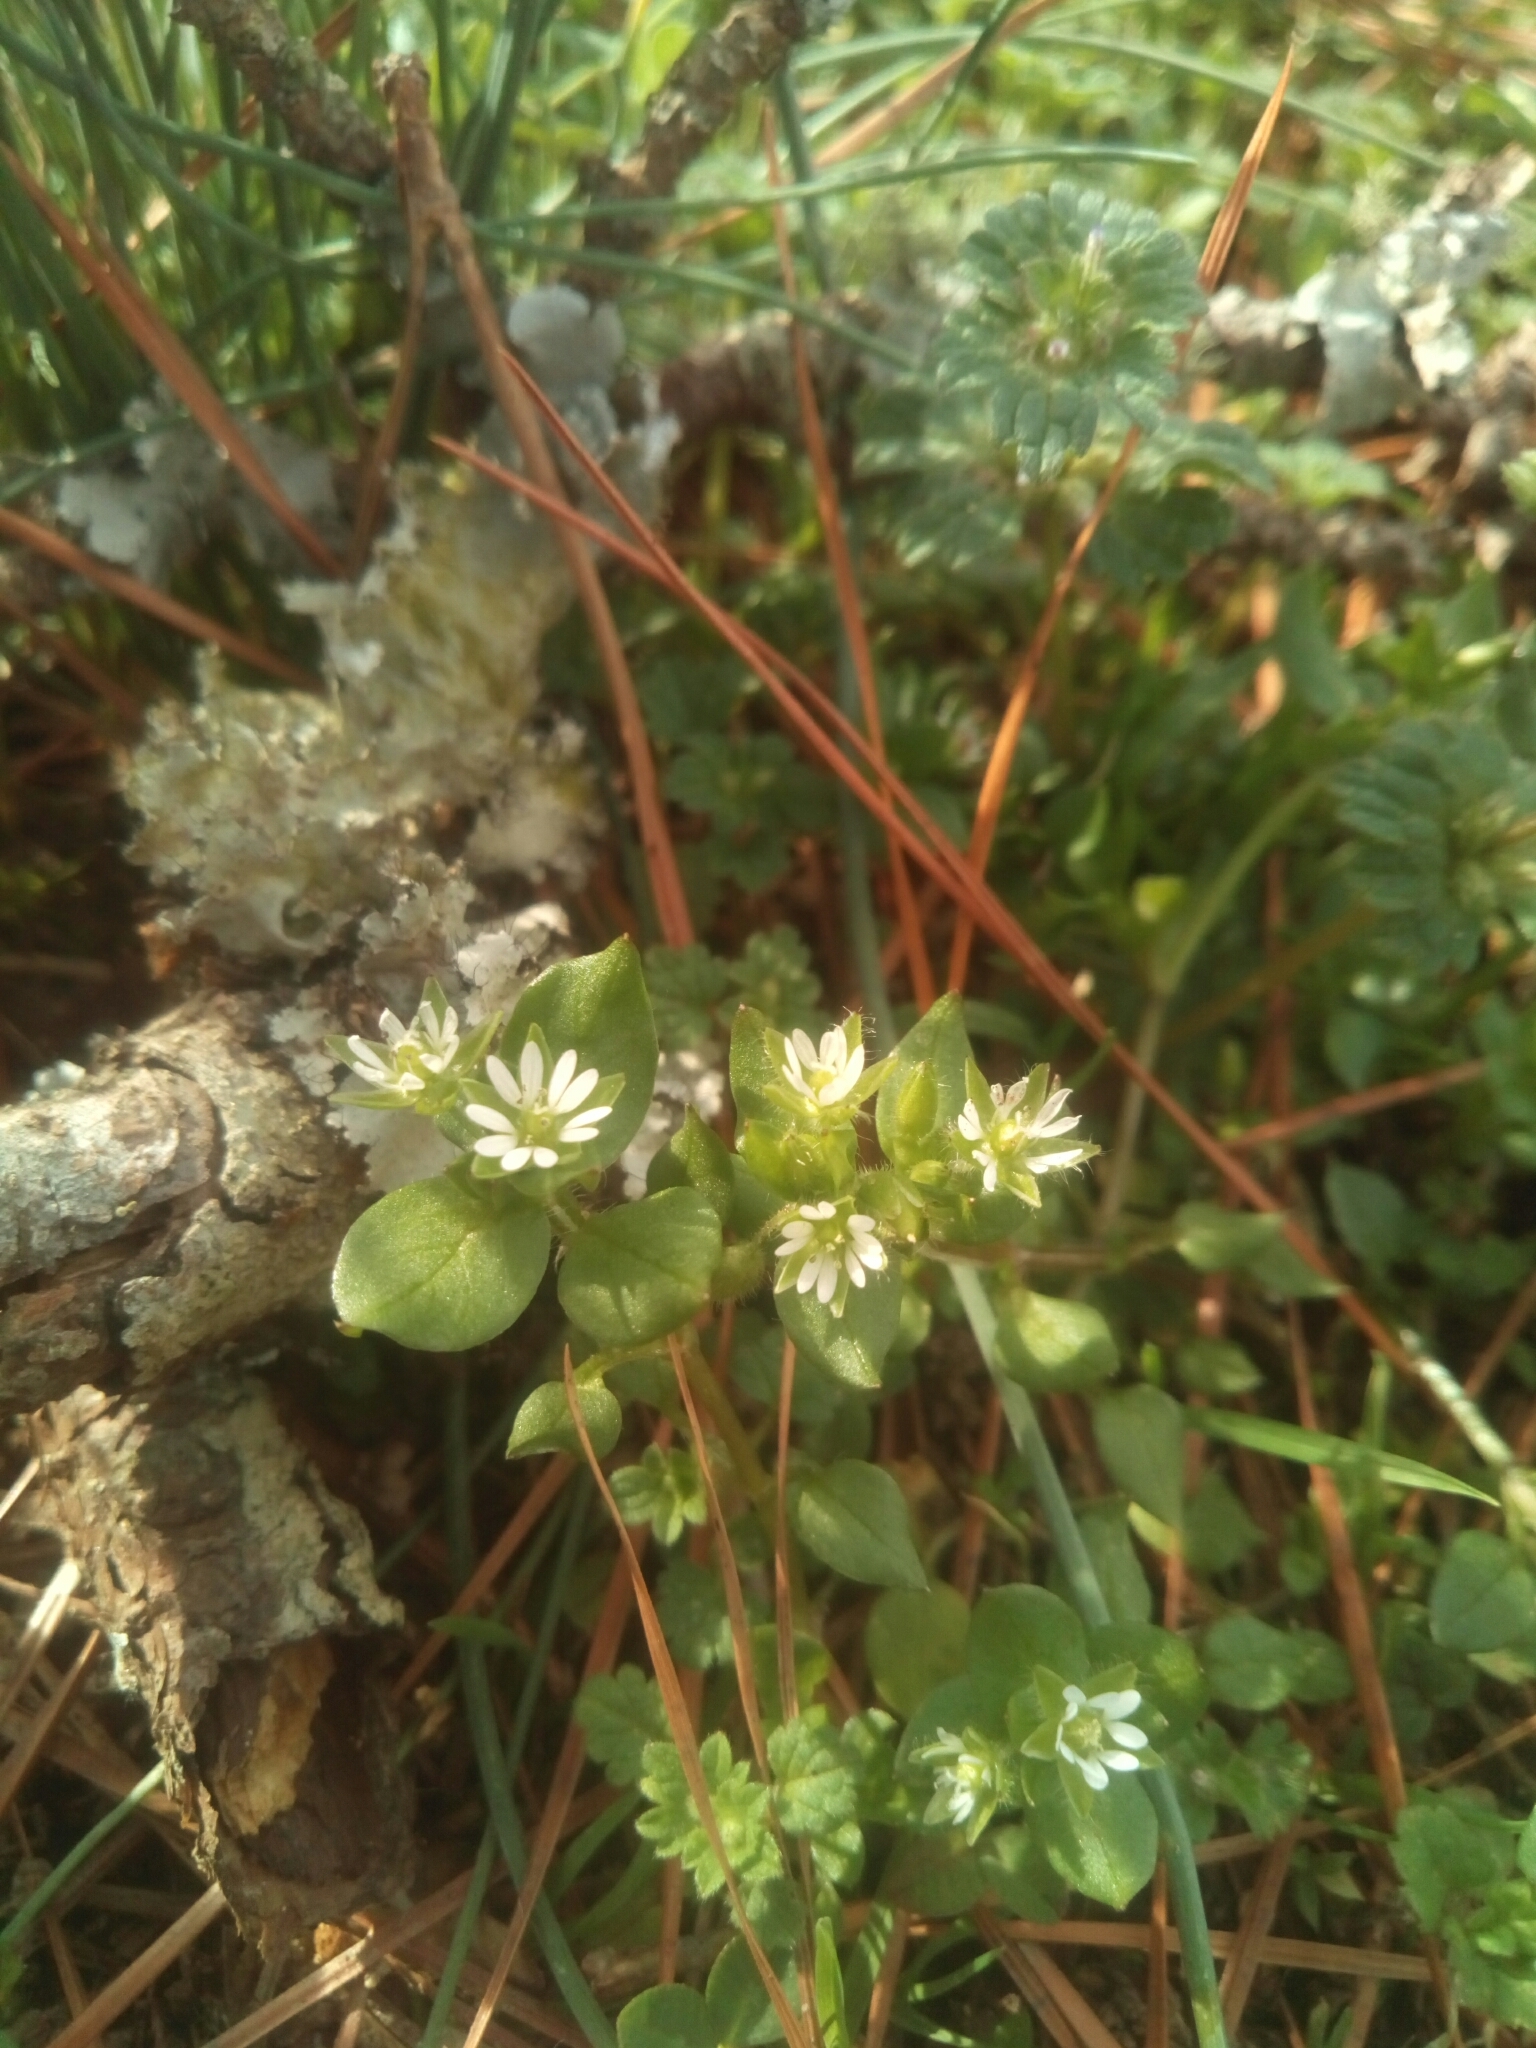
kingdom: Plantae
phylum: Tracheophyta
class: Magnoliopsida
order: Caryophyllales
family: Caryophyllaceae
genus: Stellaria
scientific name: Stellaria media
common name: Common chickweed
